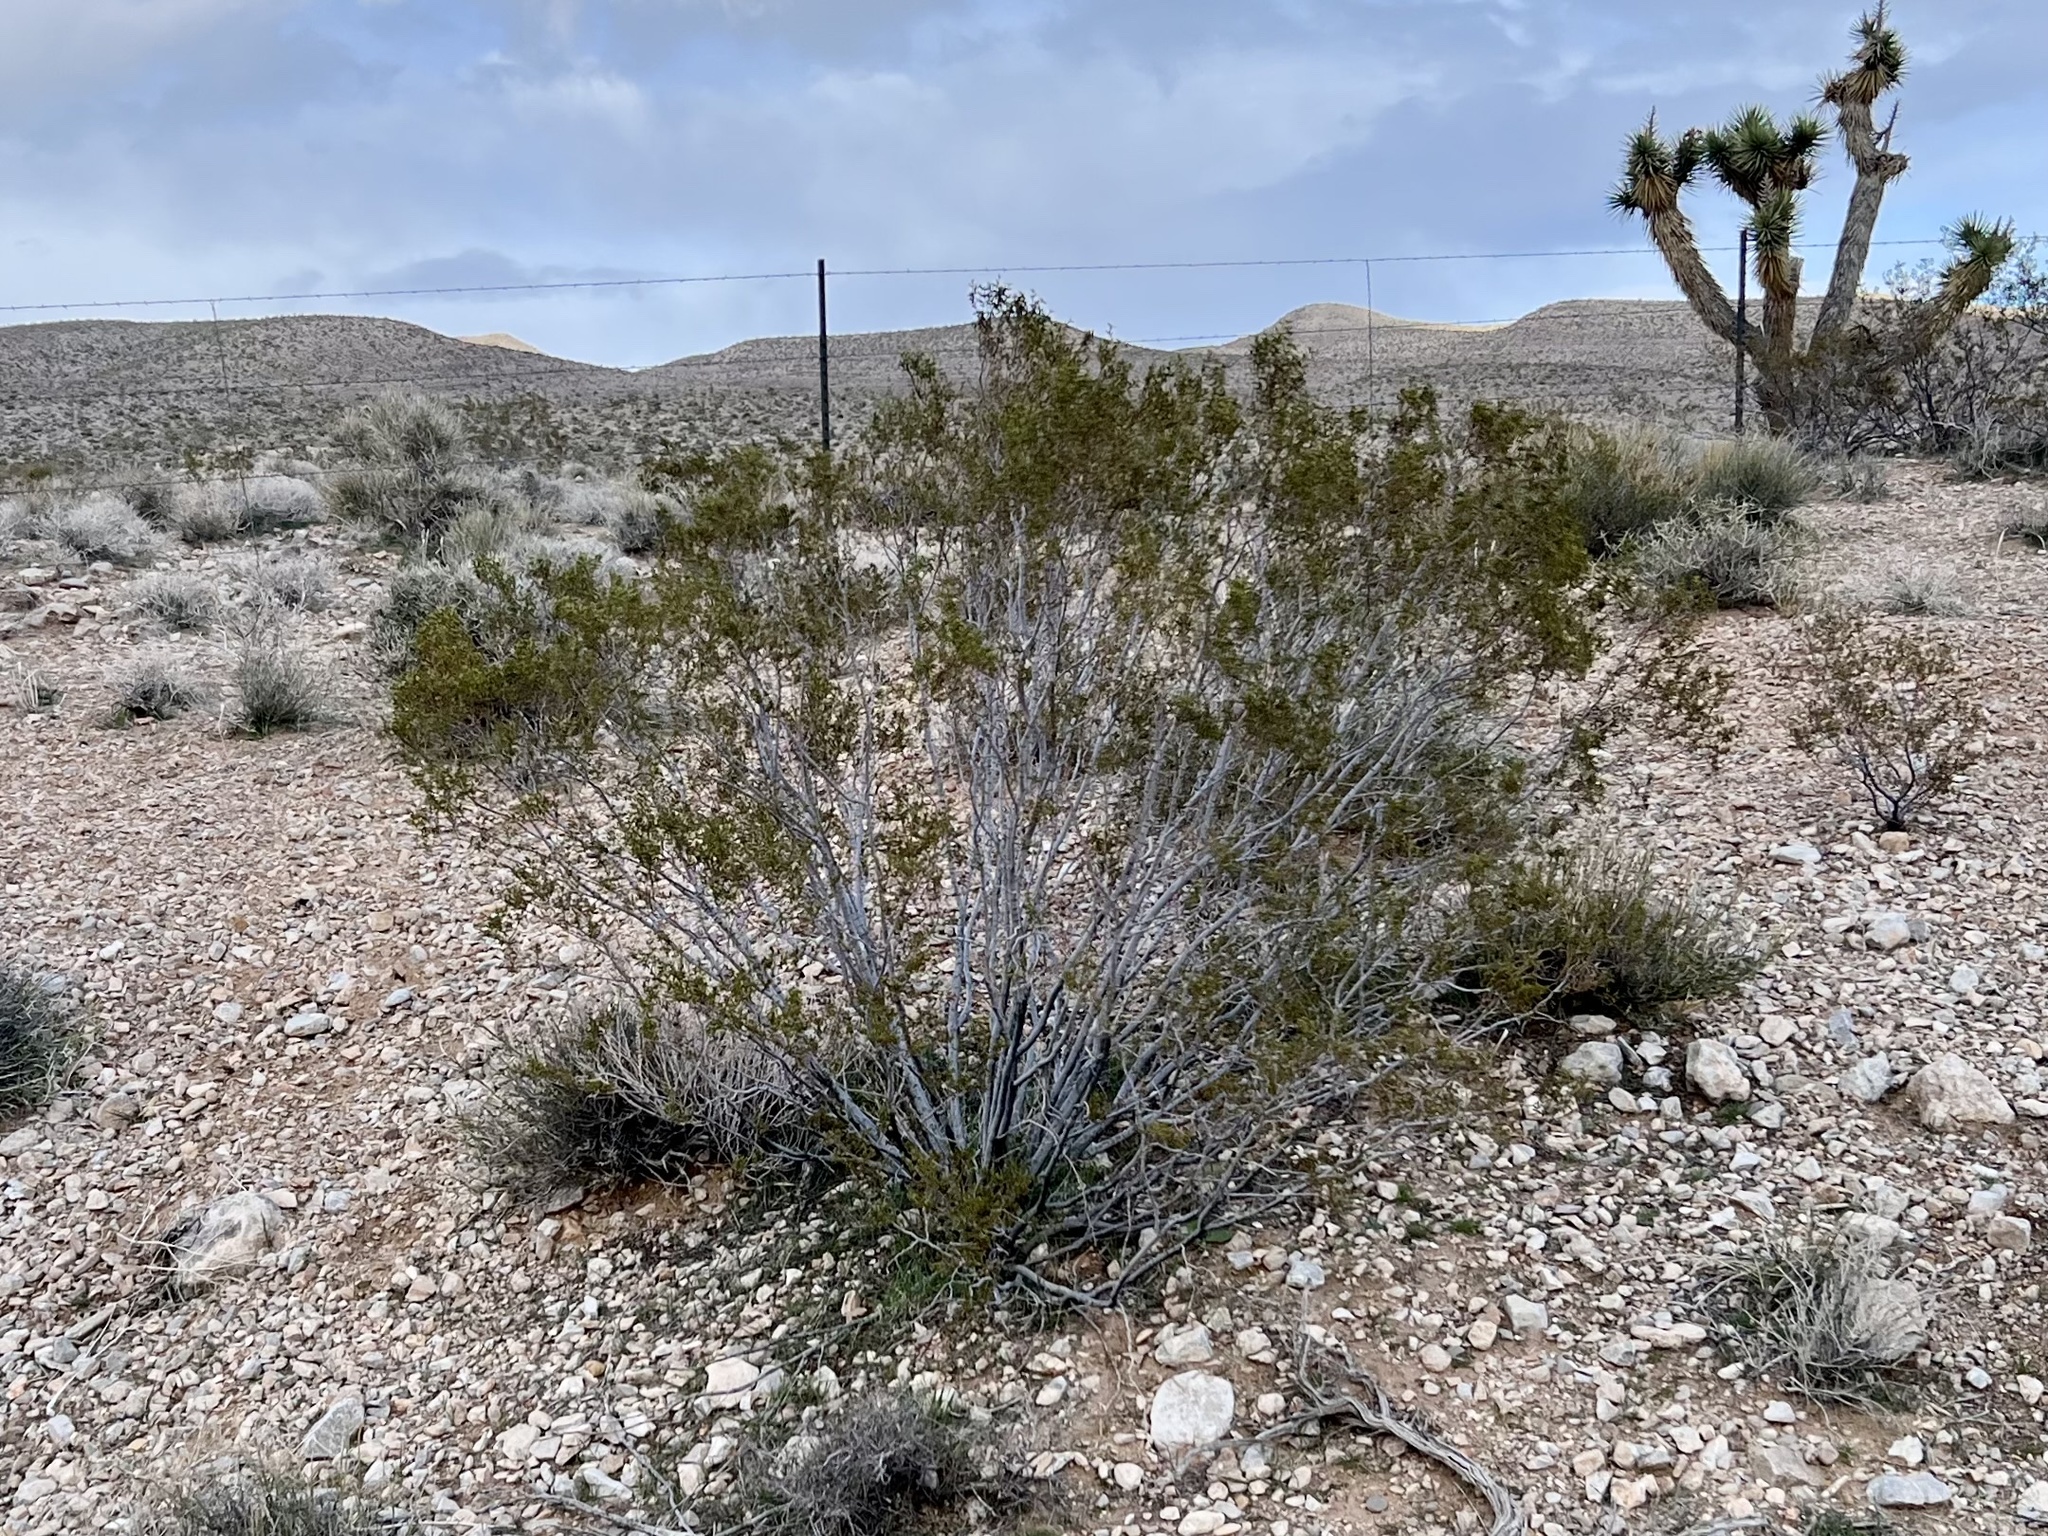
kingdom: Plantae
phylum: Tracheophyta
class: Magnoliopsida
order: Zygophyllales
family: Zygophyllaceae
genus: Larrea
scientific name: Larrea tridentata
